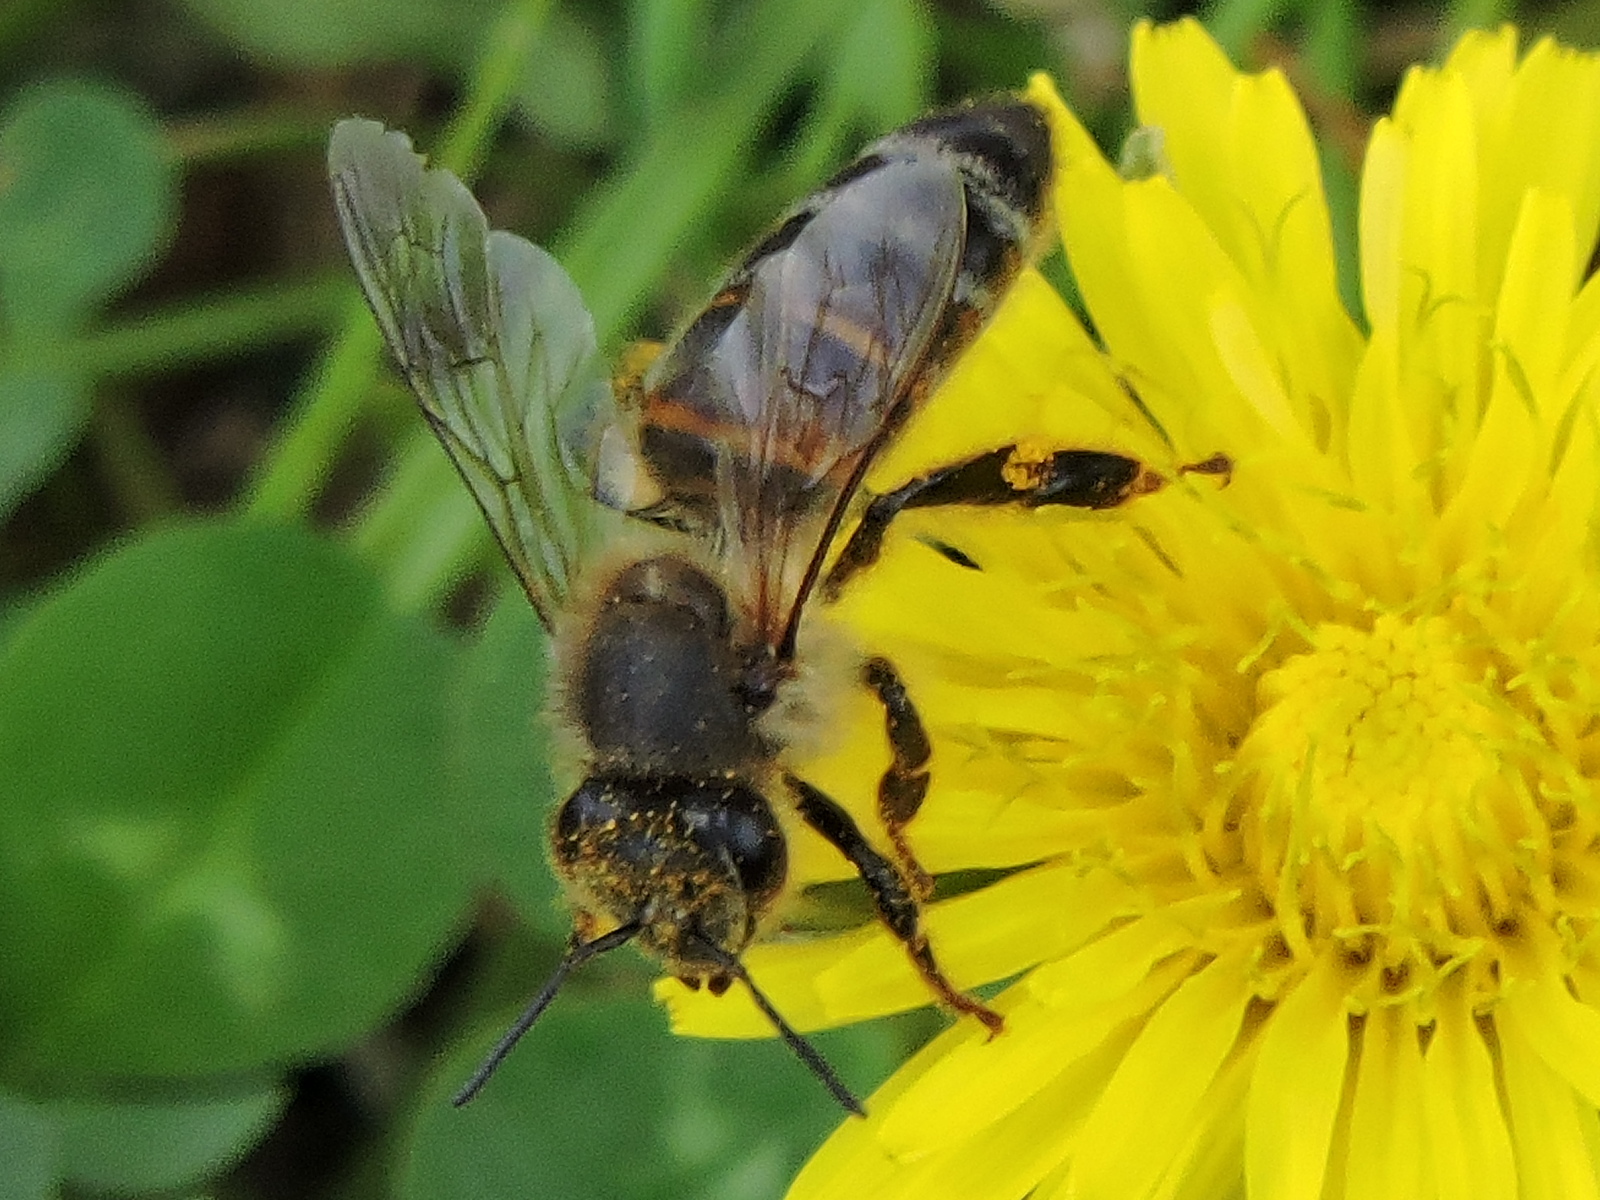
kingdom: Animalia
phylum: Arthropoda
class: Insecta
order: Hymenoptera
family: Apidae
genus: Apis
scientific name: Apis mellifera
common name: Honey bee
